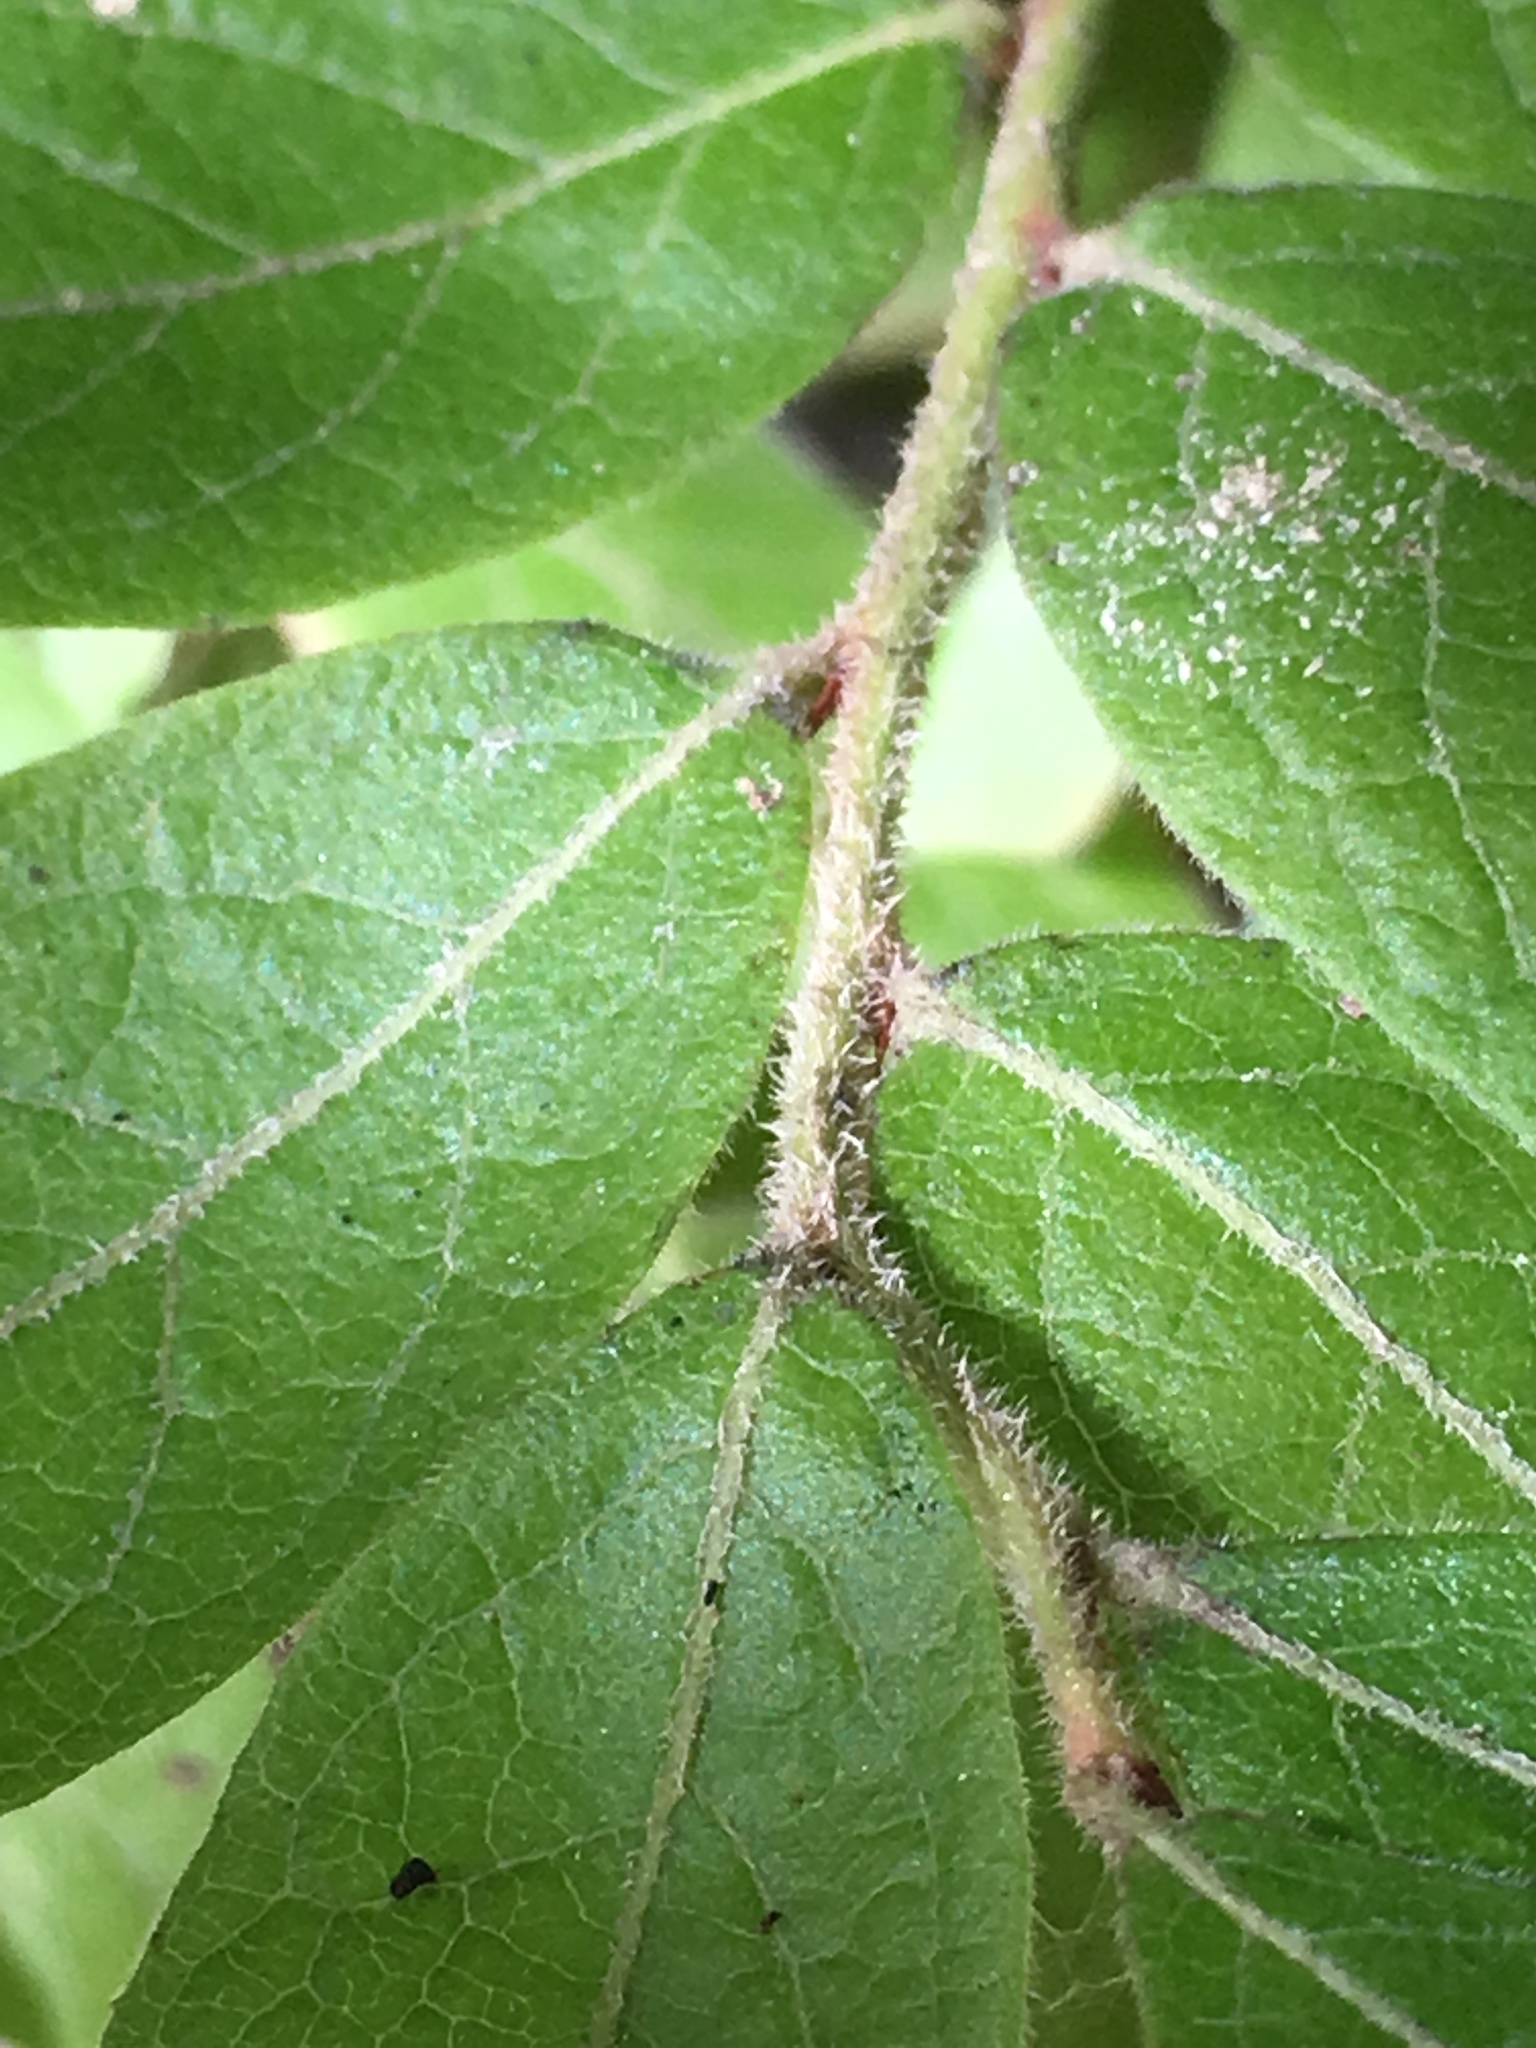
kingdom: Plantae
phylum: Tracheophyta
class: Magnoliopsida
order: Ericales
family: Ericaceae
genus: Vaccinium
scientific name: Vaccinium myrtilloides
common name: Canada blueberry
